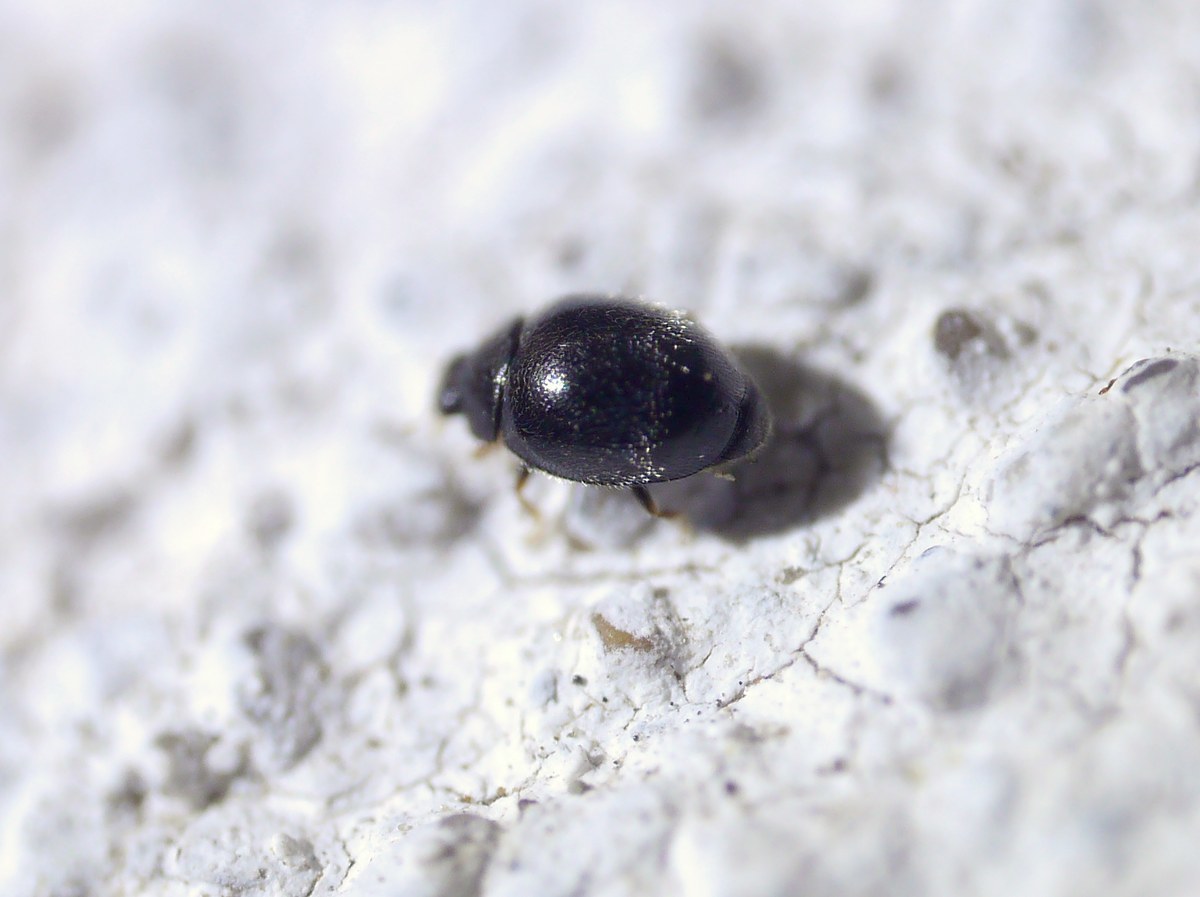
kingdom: Animalia
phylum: Arthropoda
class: Insecta
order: Coleoptera
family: Coccinellidae
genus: Stethorus
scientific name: Stethorus pusillus
